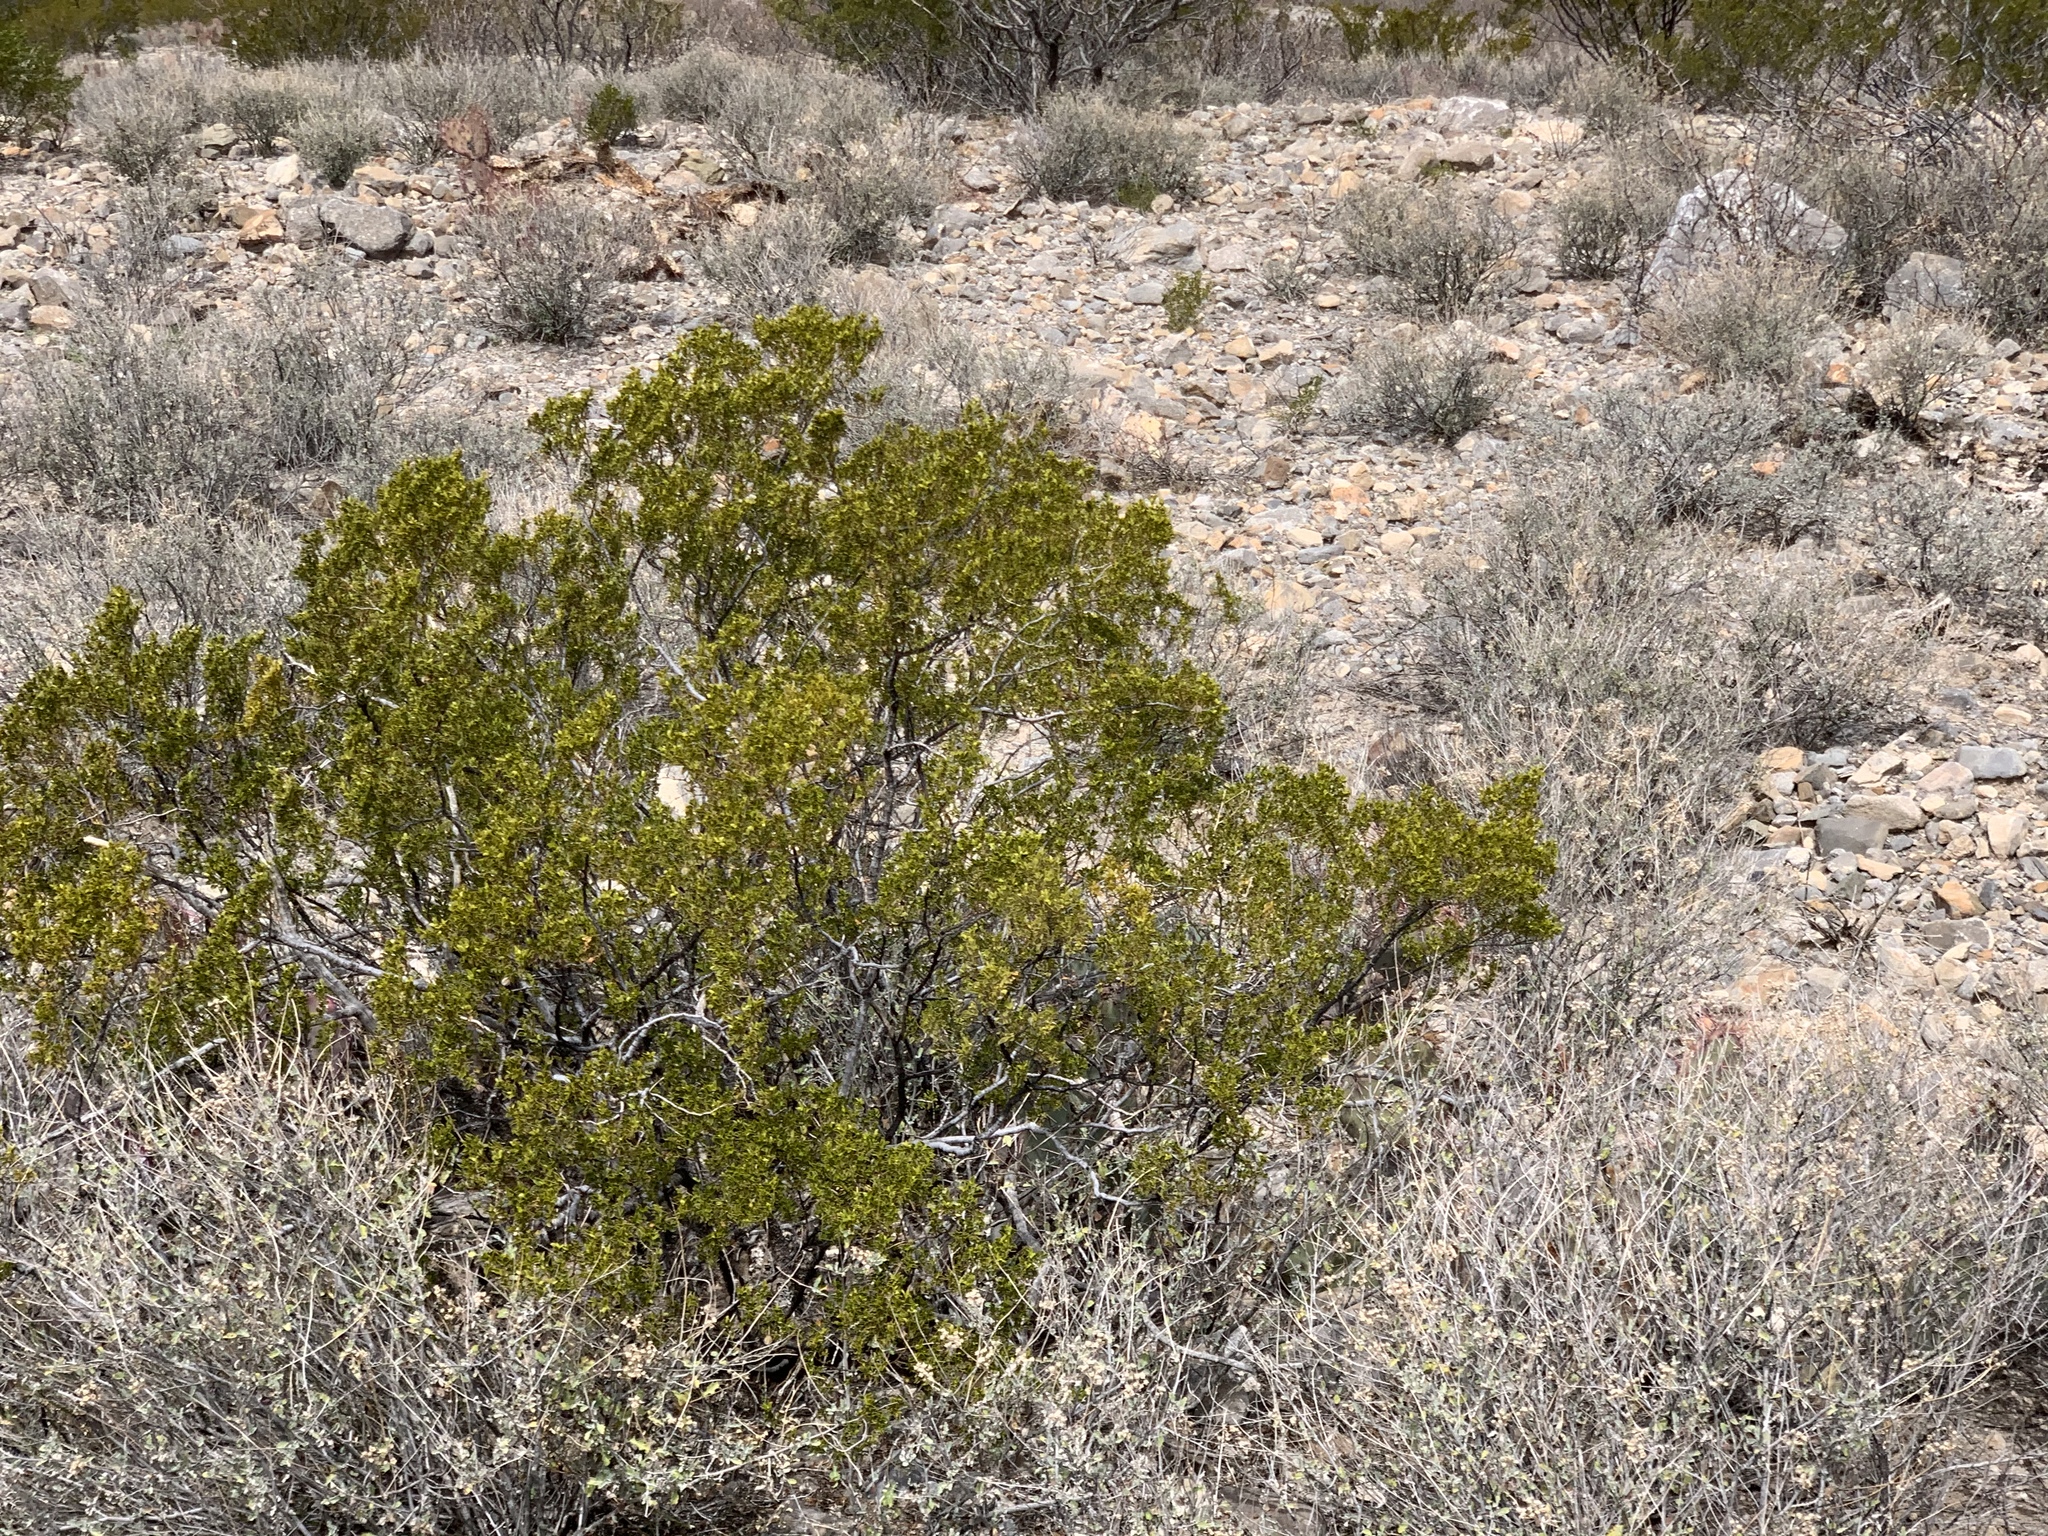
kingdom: Plantae
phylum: Tracheophyta
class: Magnoliopsida
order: Zygophyllales
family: Zygophyllaceae
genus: Larrea
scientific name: Larrea tridentata
